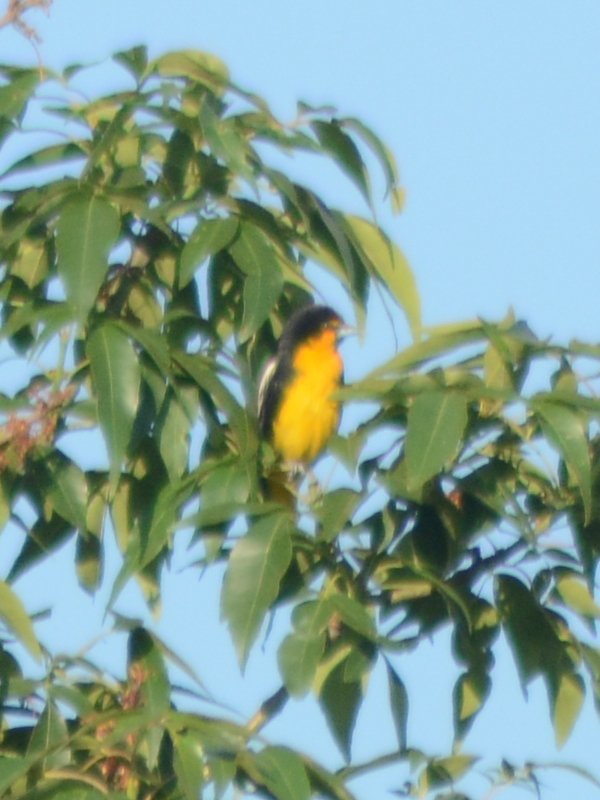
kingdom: Animalia
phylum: Chordata
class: Aves
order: Passeriformes
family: Icteridae
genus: Icterus
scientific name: Icterus abeillei
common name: Black-backed oriole
